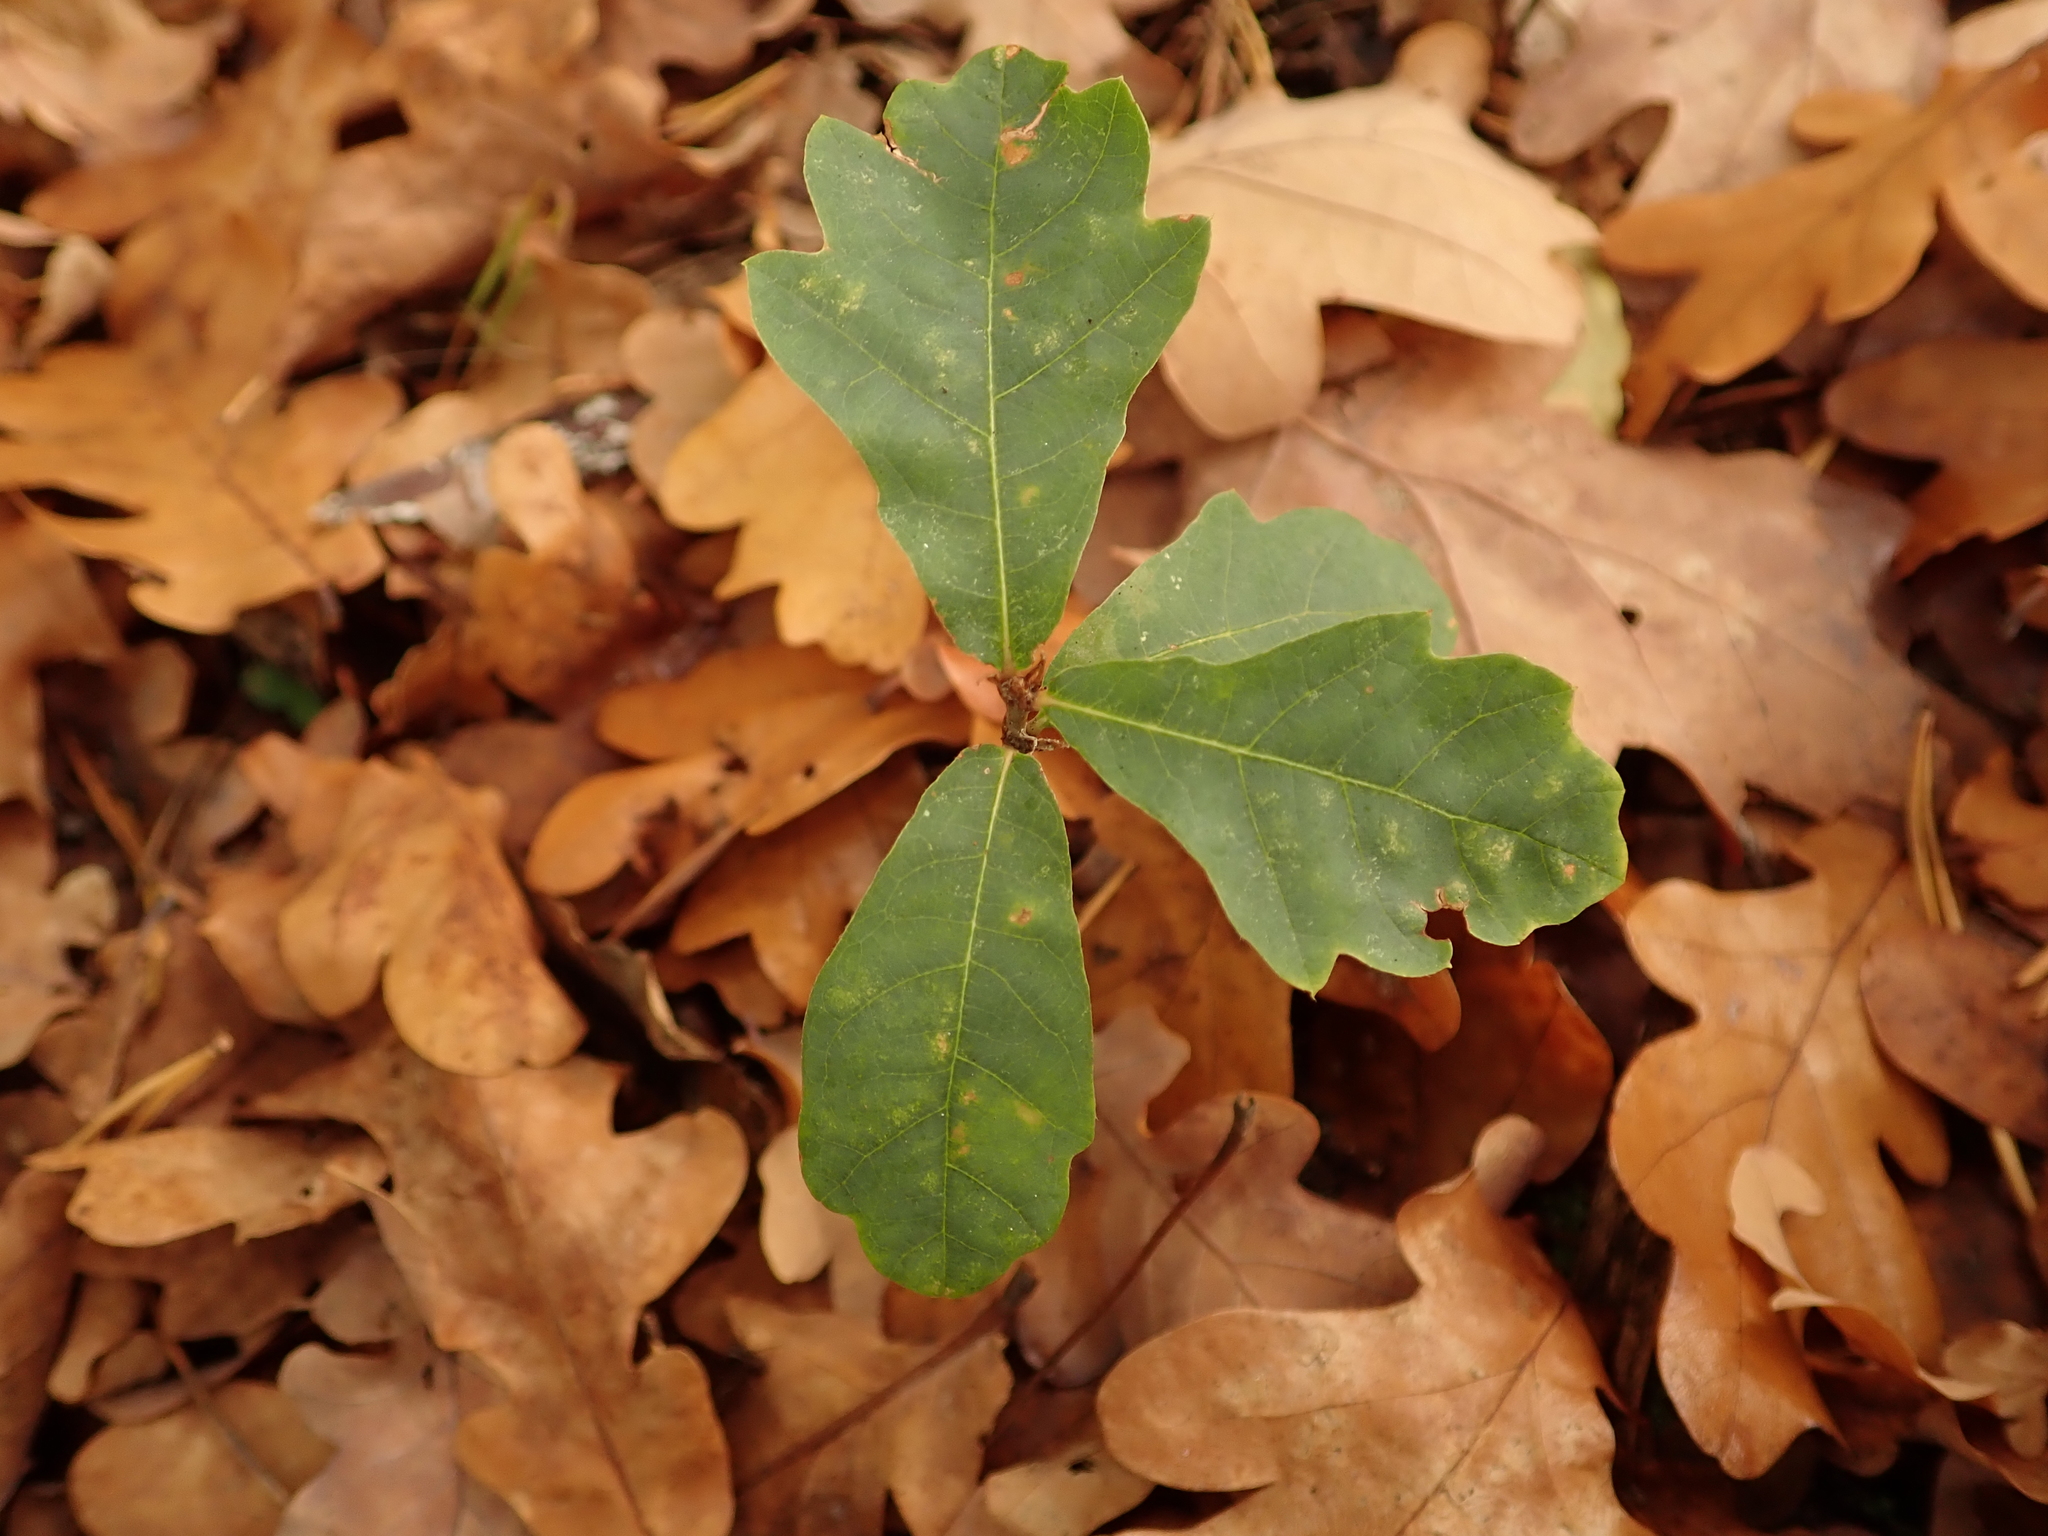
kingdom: Plantae
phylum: Tracheophyta
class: Magnoliopsida
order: Fagales
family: Fagaceae
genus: Quercus
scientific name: Quercus robur
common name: Pedunculate oak
